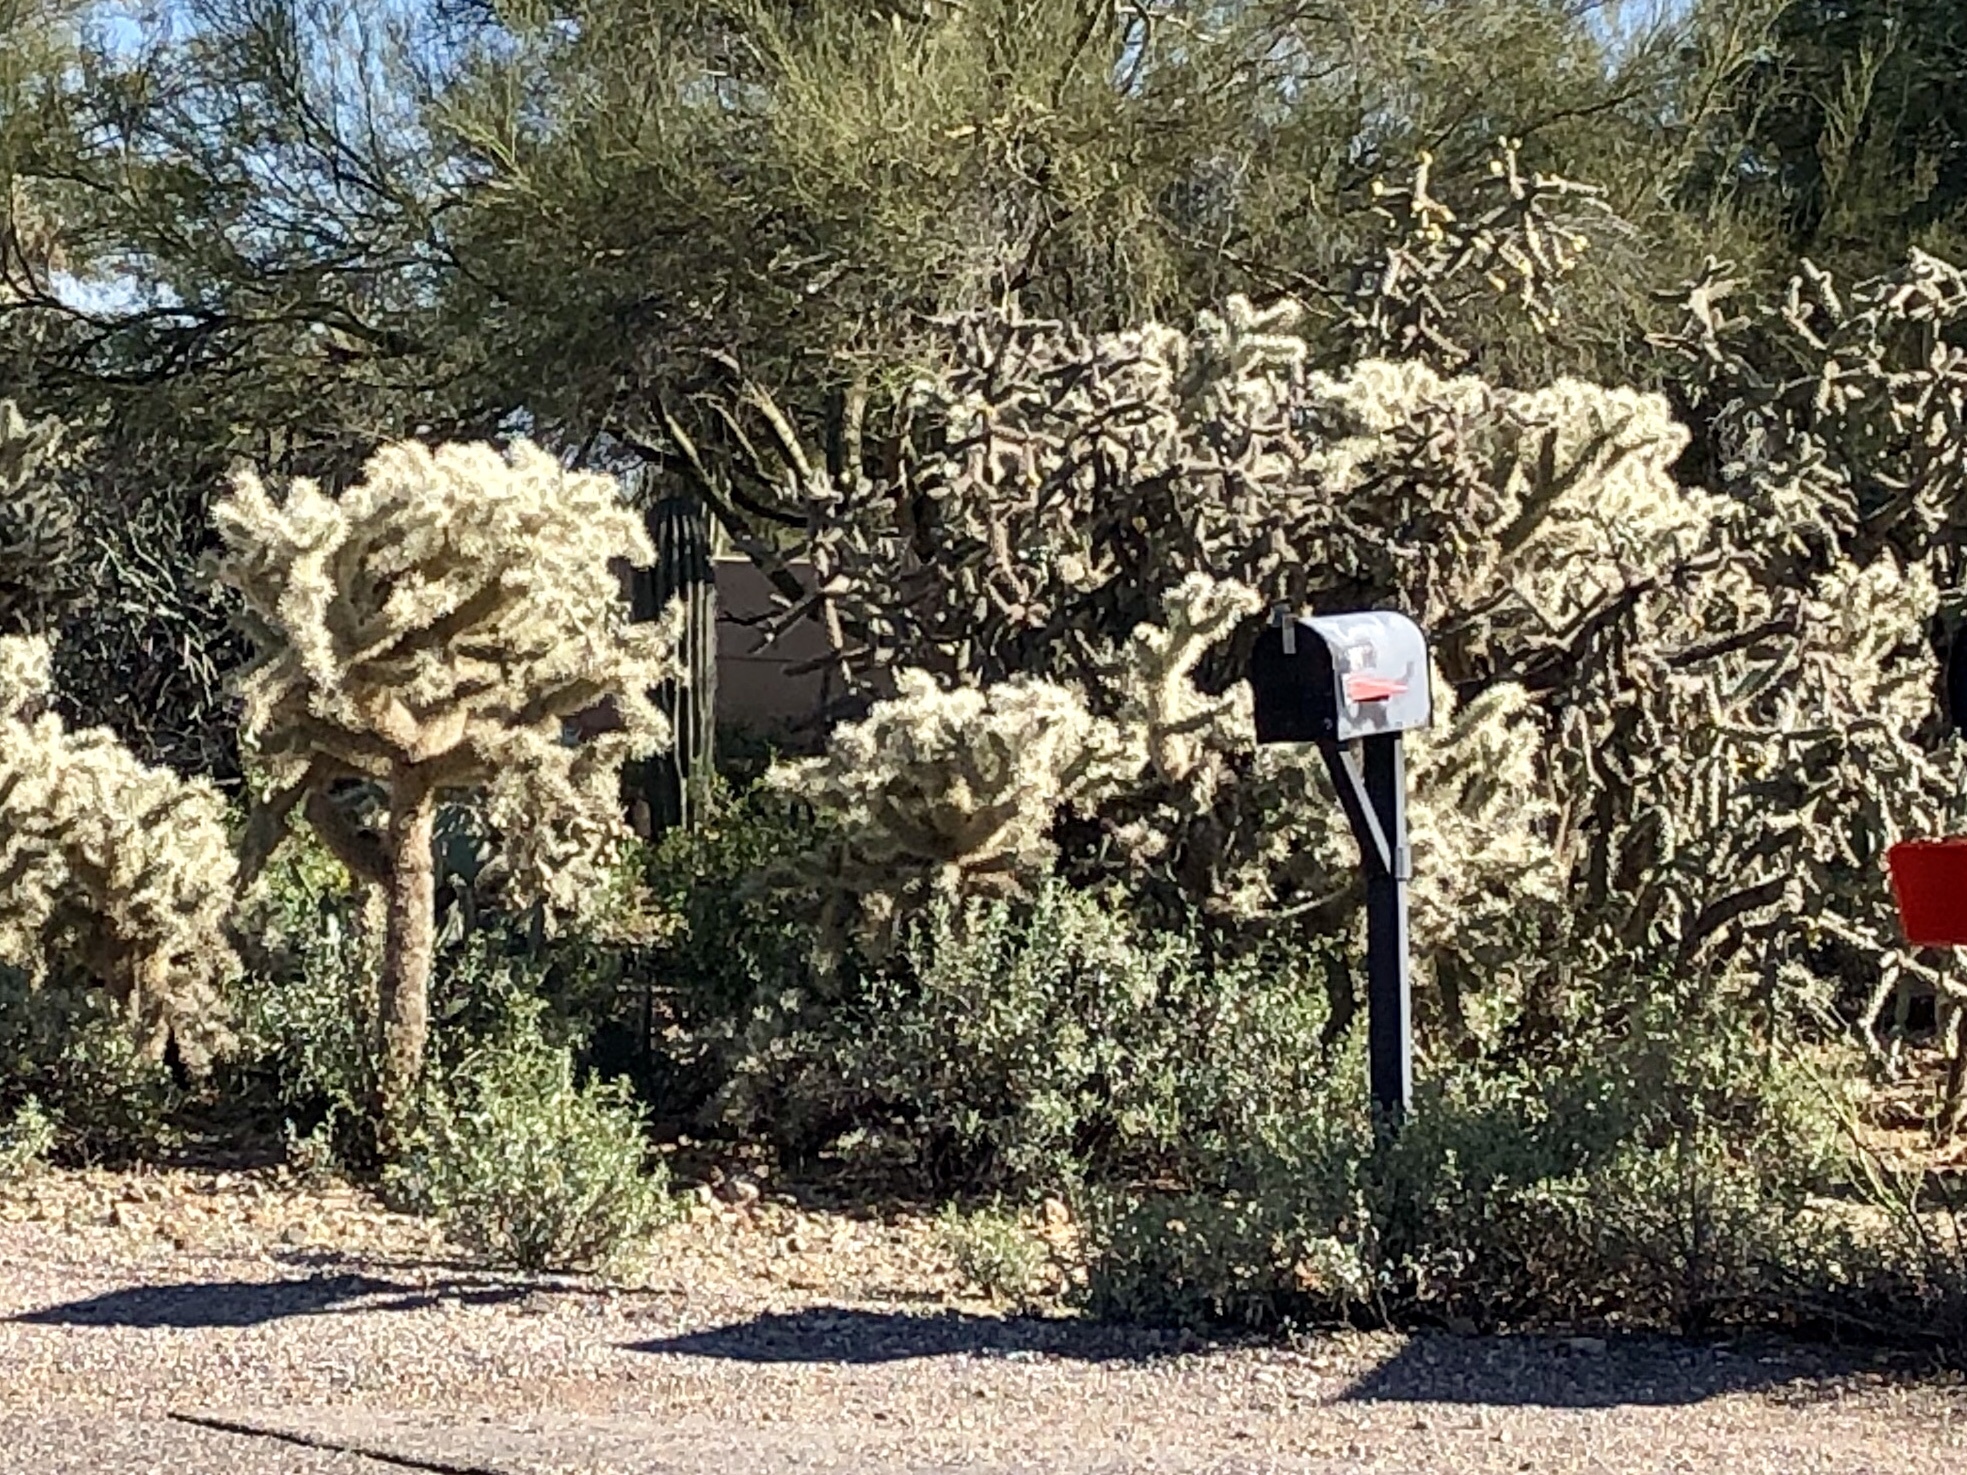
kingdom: Plantae
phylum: Tracheophyta
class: Magnoliopsida
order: Caryophyllales
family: Cactaceae
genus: Cylindropuntia
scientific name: Cylindropuntia fulgida
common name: Jumping cholla
